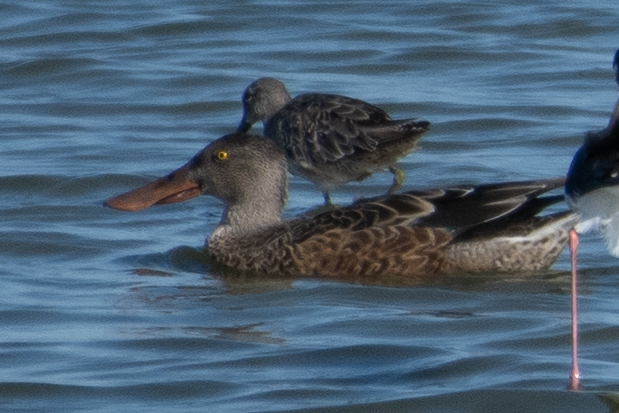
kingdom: Animalia
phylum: Chordata
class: Aves
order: Anseriformes
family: Anatidae
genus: Spatula
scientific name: Spatula clypeata
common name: Northern shoveler
